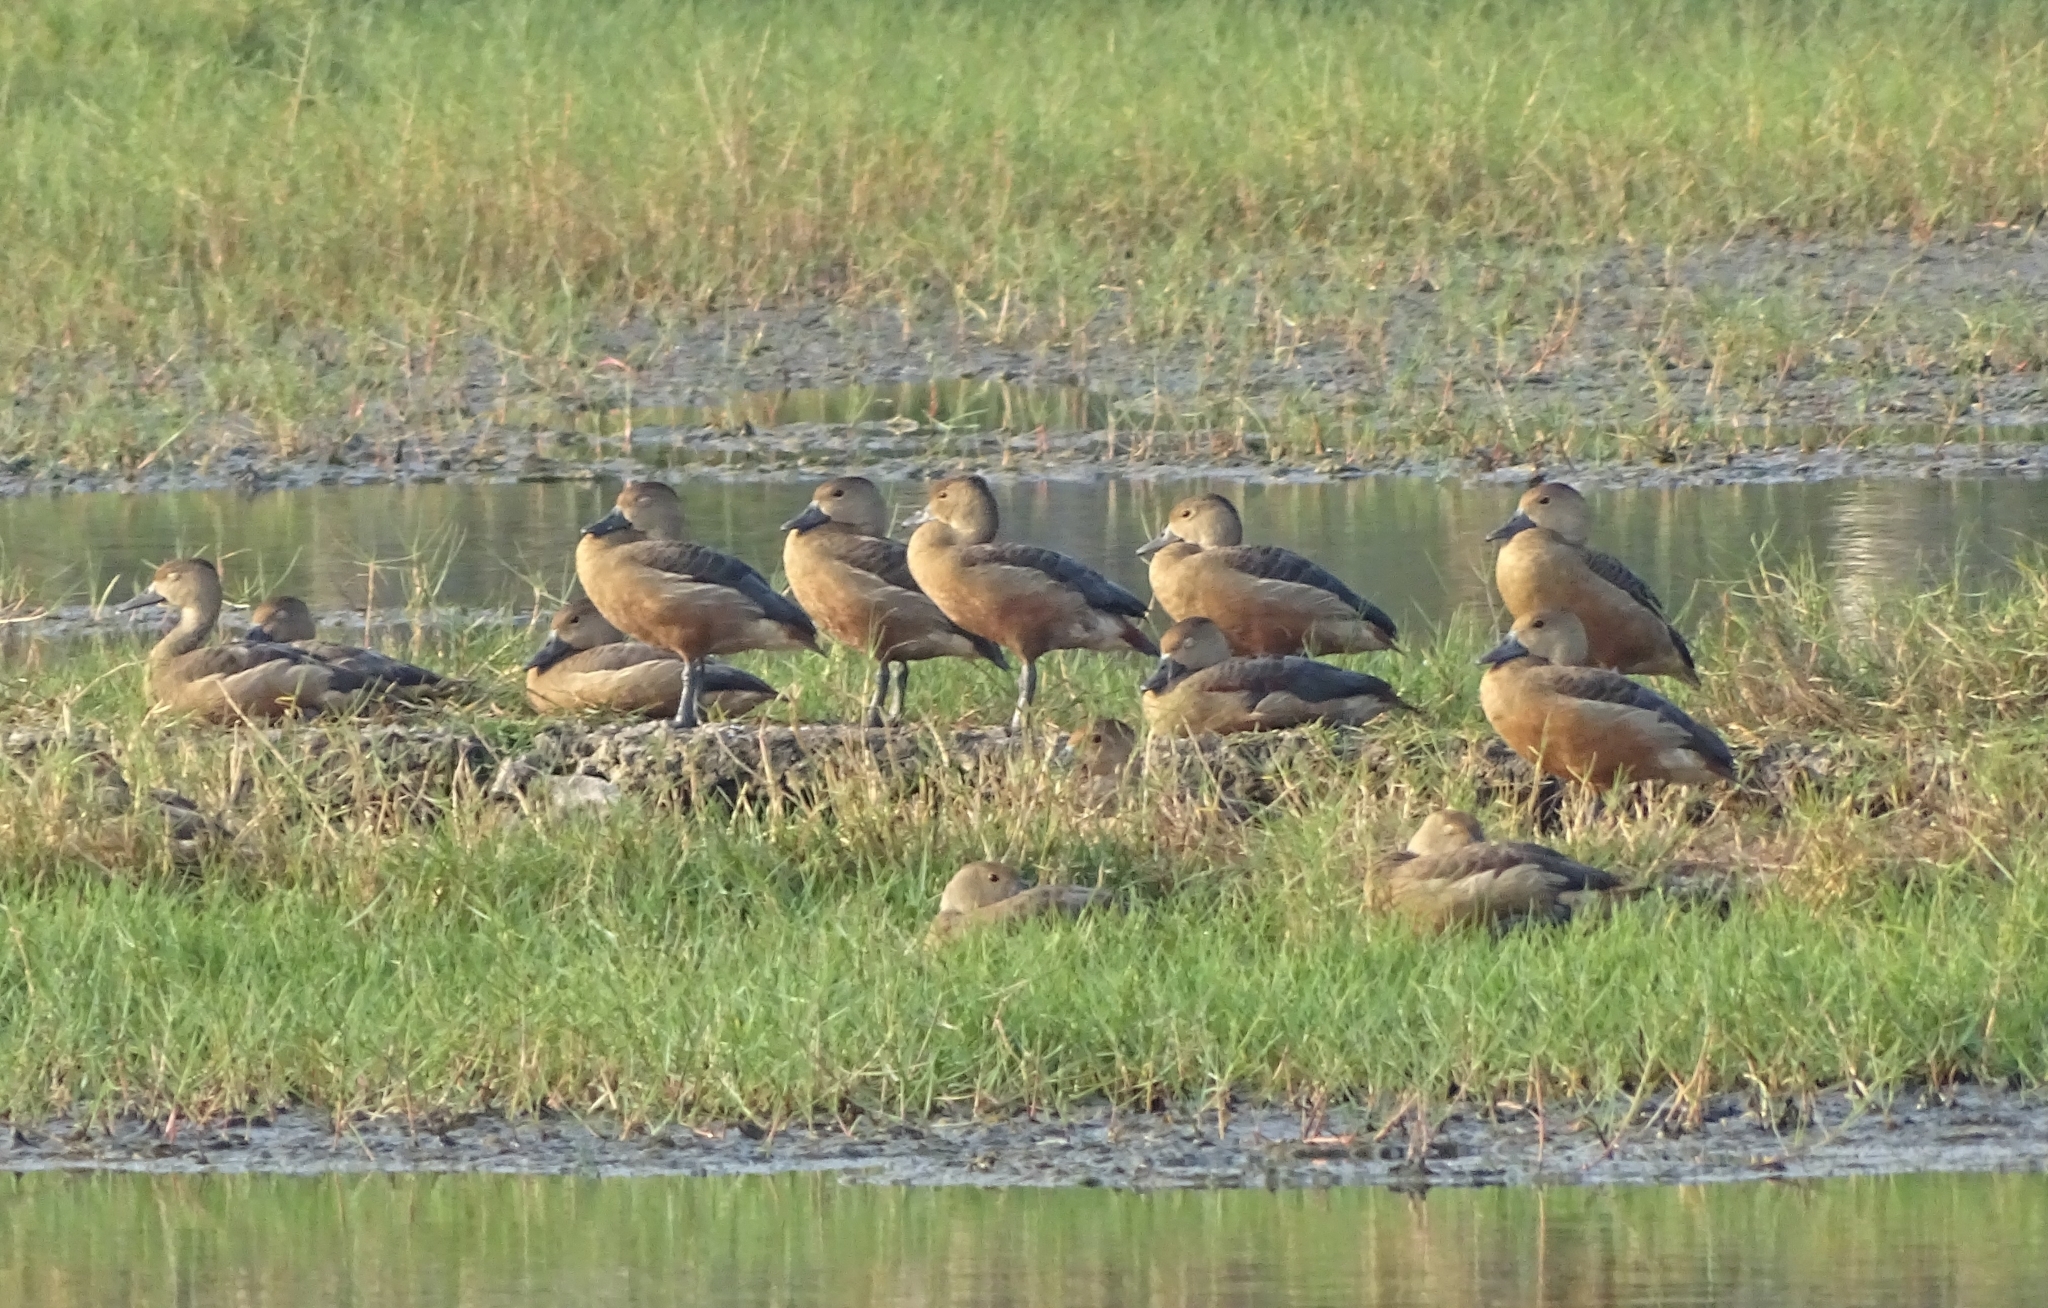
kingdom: Animalia
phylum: Chordata
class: Aves
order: Anseriformes
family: Anatidae
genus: Dendrocygna
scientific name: Dendrocygna javanica
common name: Lesser whistling-duck
